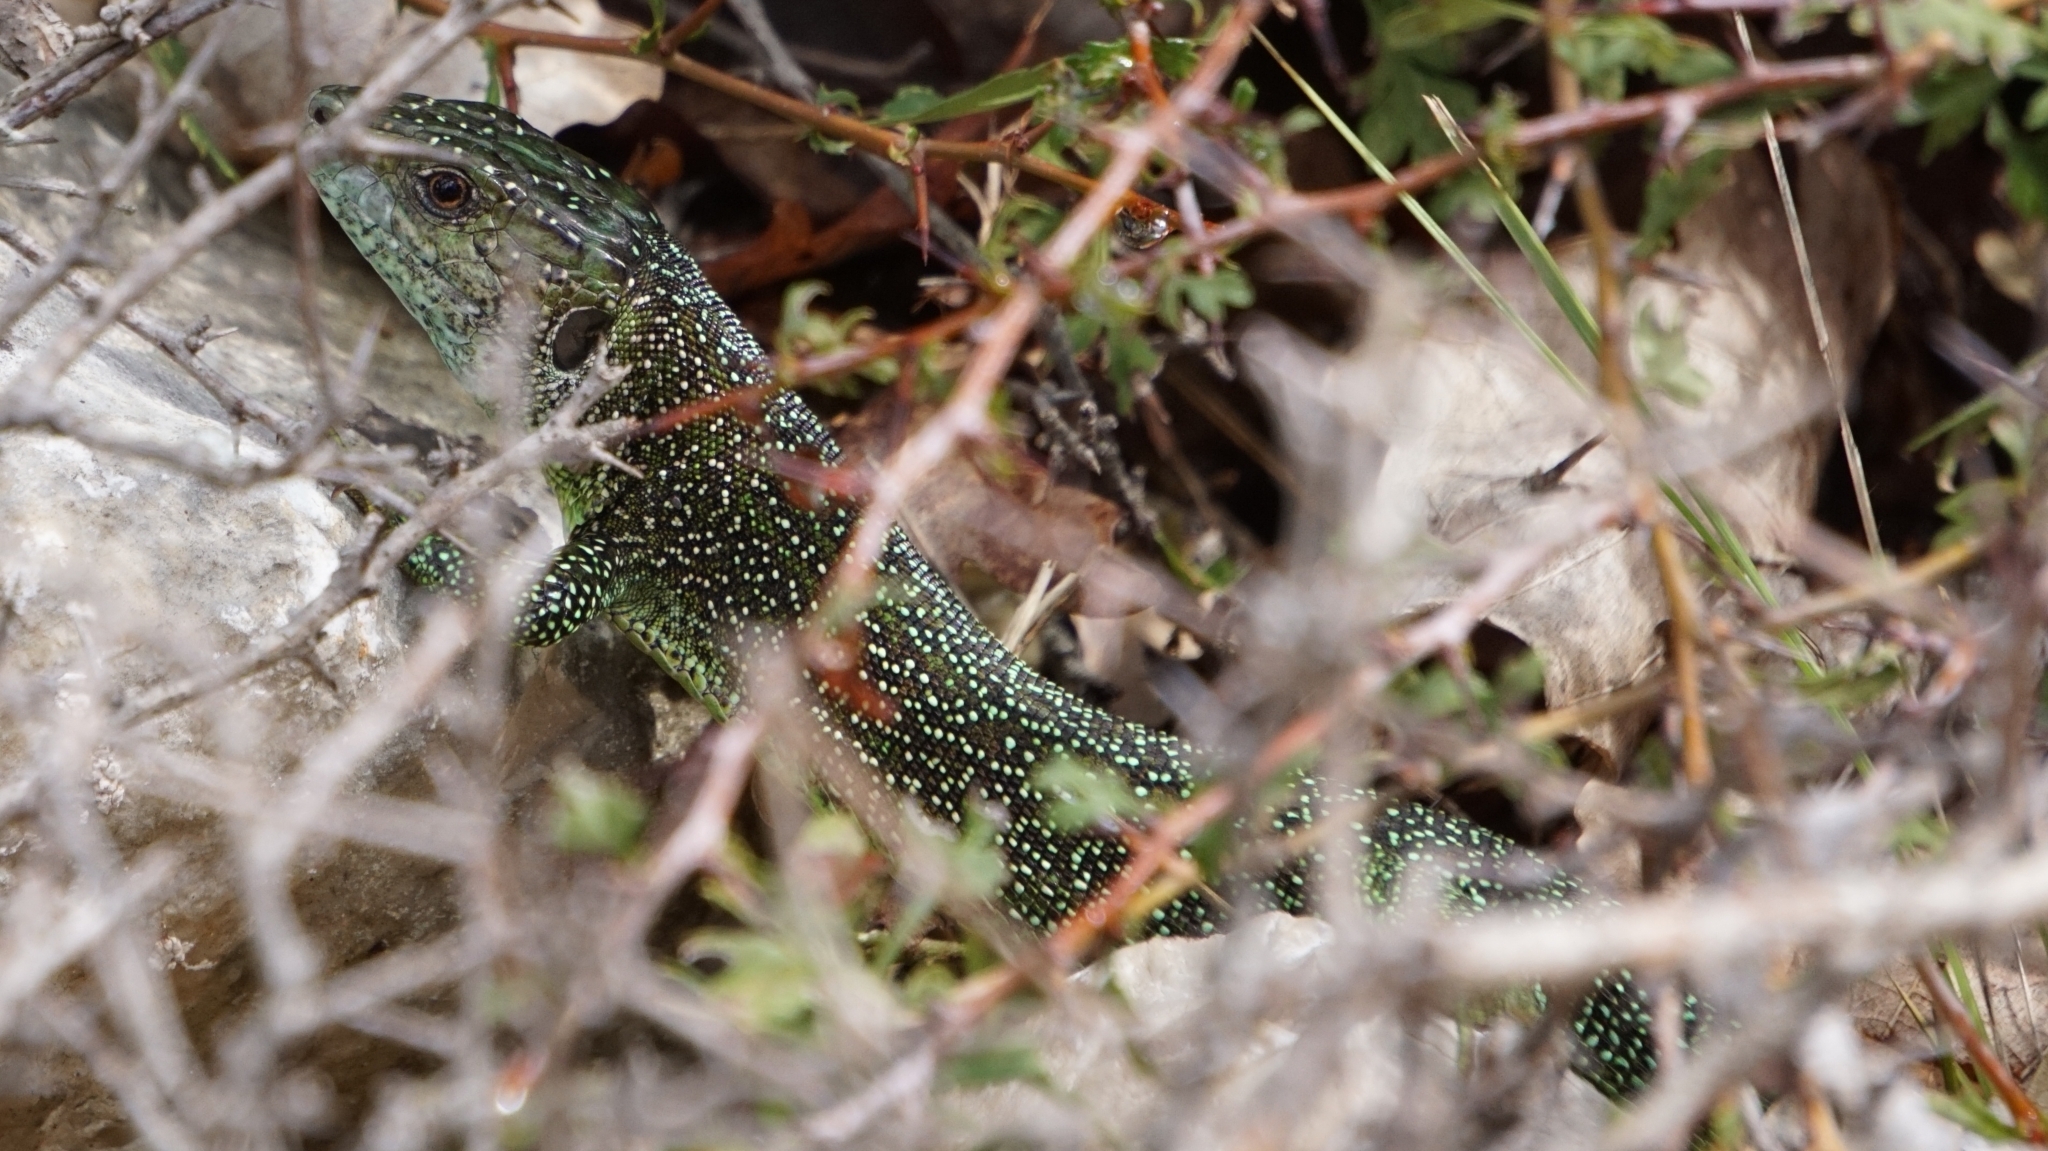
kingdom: Animalia
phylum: Chordata
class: Squamata
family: Lacertidae
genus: Lacerta
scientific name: Lacerta bilineata
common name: Western green lizard
